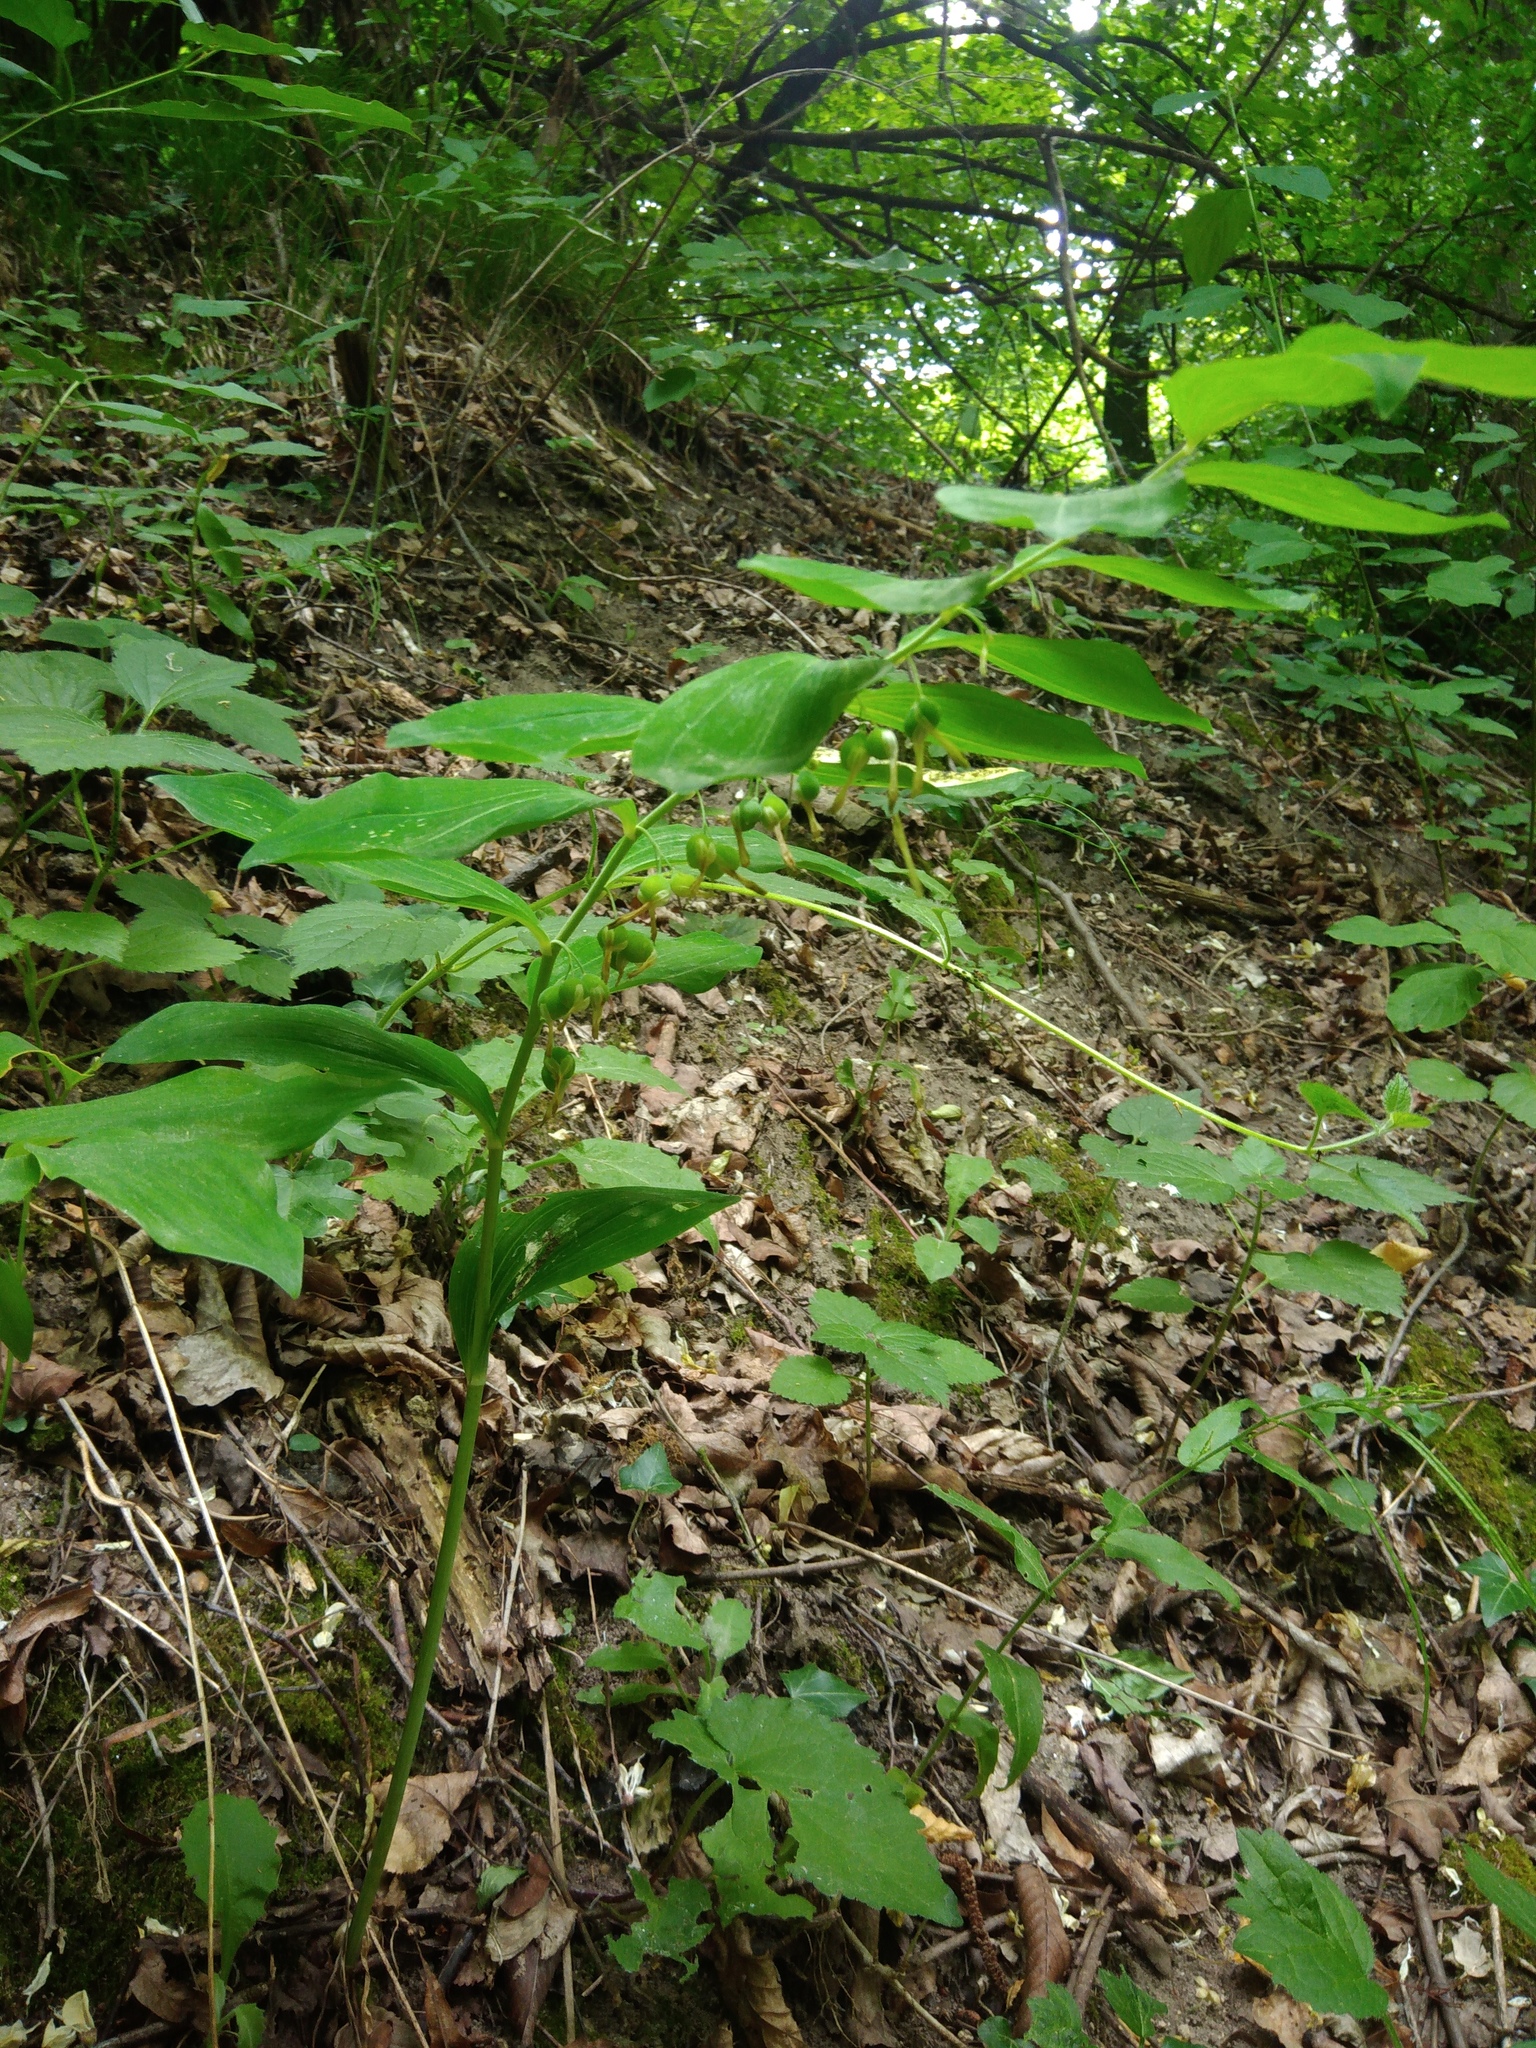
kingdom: Plantae
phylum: Tracheophyta
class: Liliopsida
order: Asparagales
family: Asparagaceae
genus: Polygonatum
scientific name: Polygonatum multiflorum
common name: Solomon's-seal
